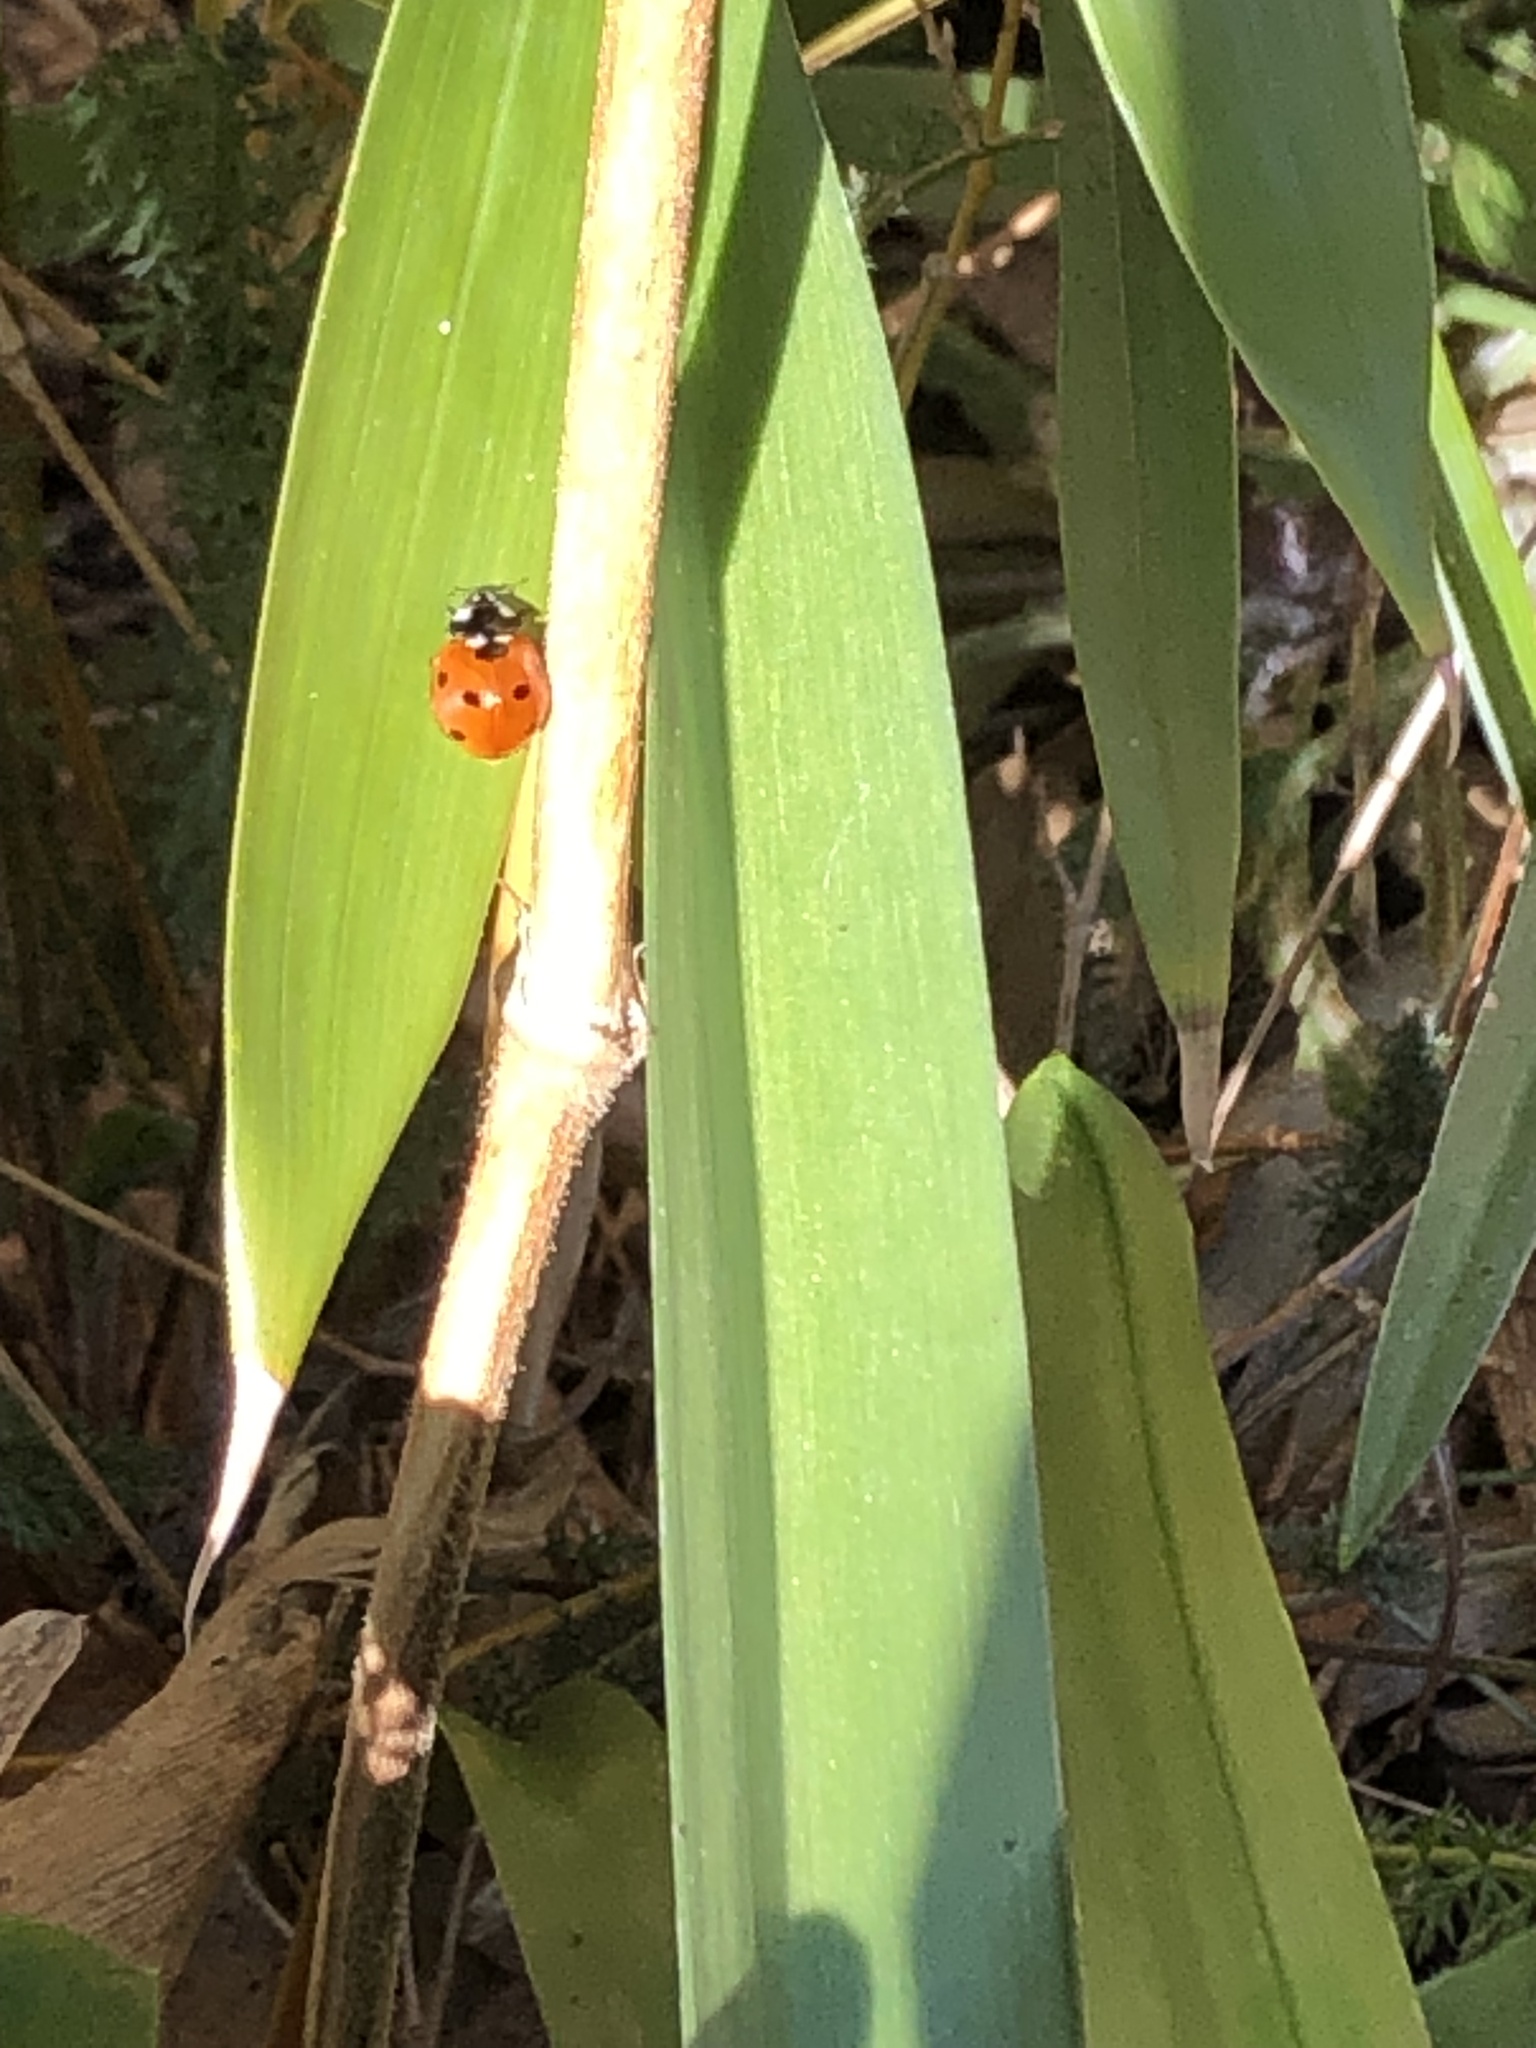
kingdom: Animalia
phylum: Arthropoda
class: Insecta
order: Coleoptera
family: Coccinellidae
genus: Coccinella
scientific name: Coccinella septempunctata
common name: Sevenspotted lady beetle
